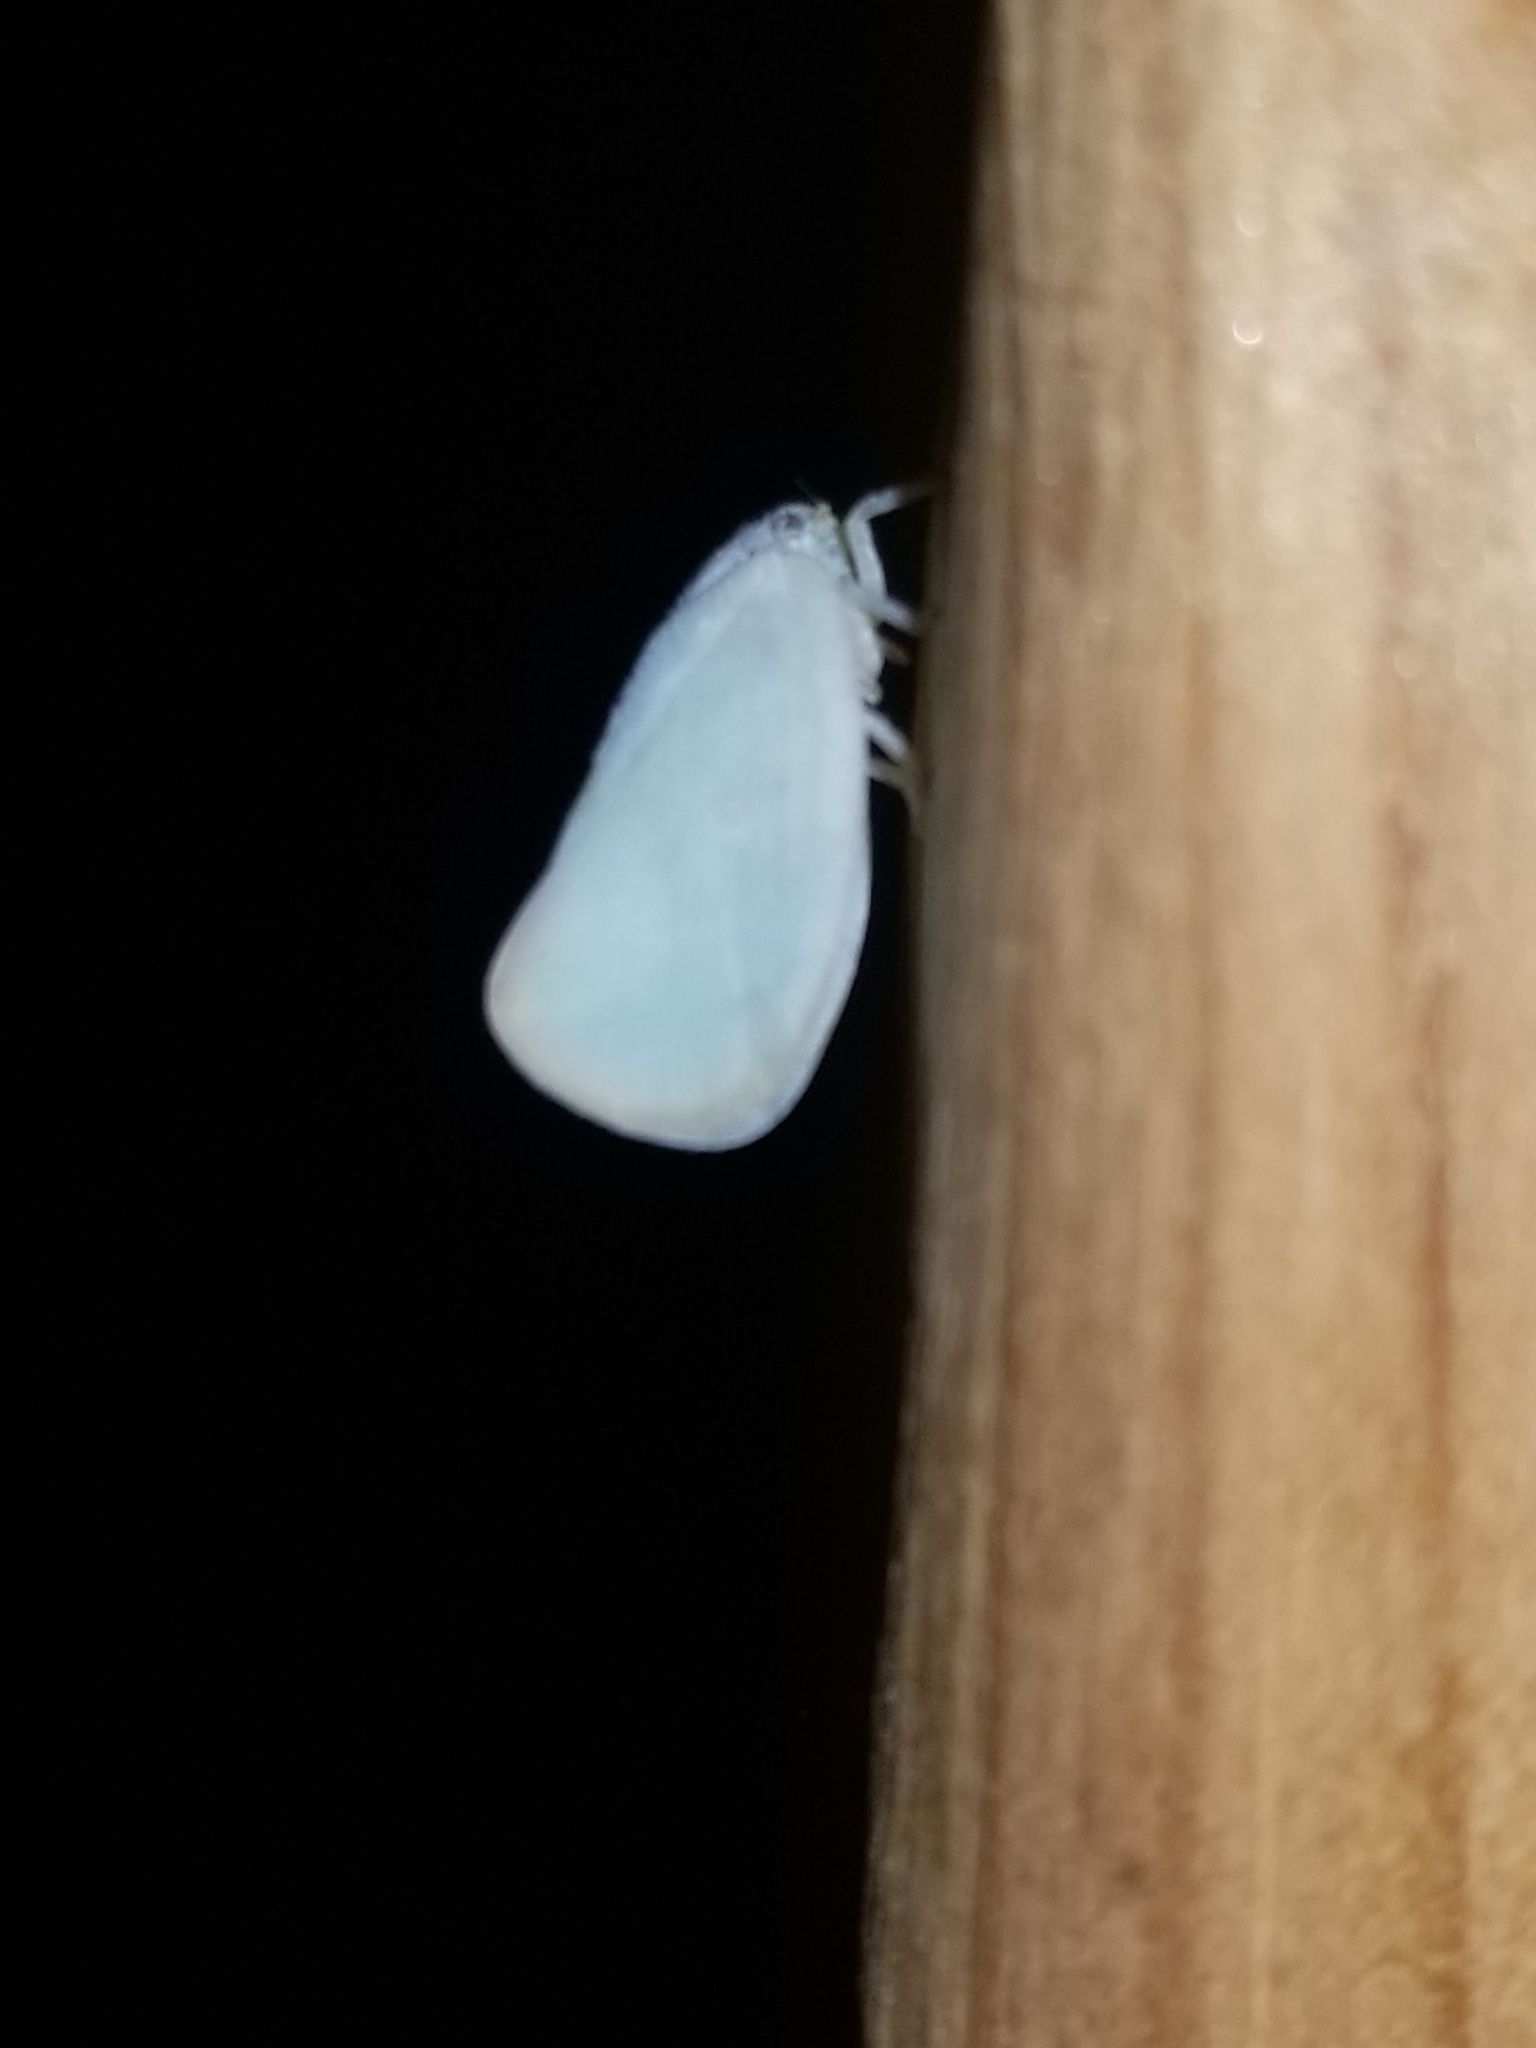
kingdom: Animalia
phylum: Arthropoda
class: Insecta
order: Hemiptera
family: Flatidae
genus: Ormenoides
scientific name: Ormenoides venusta
